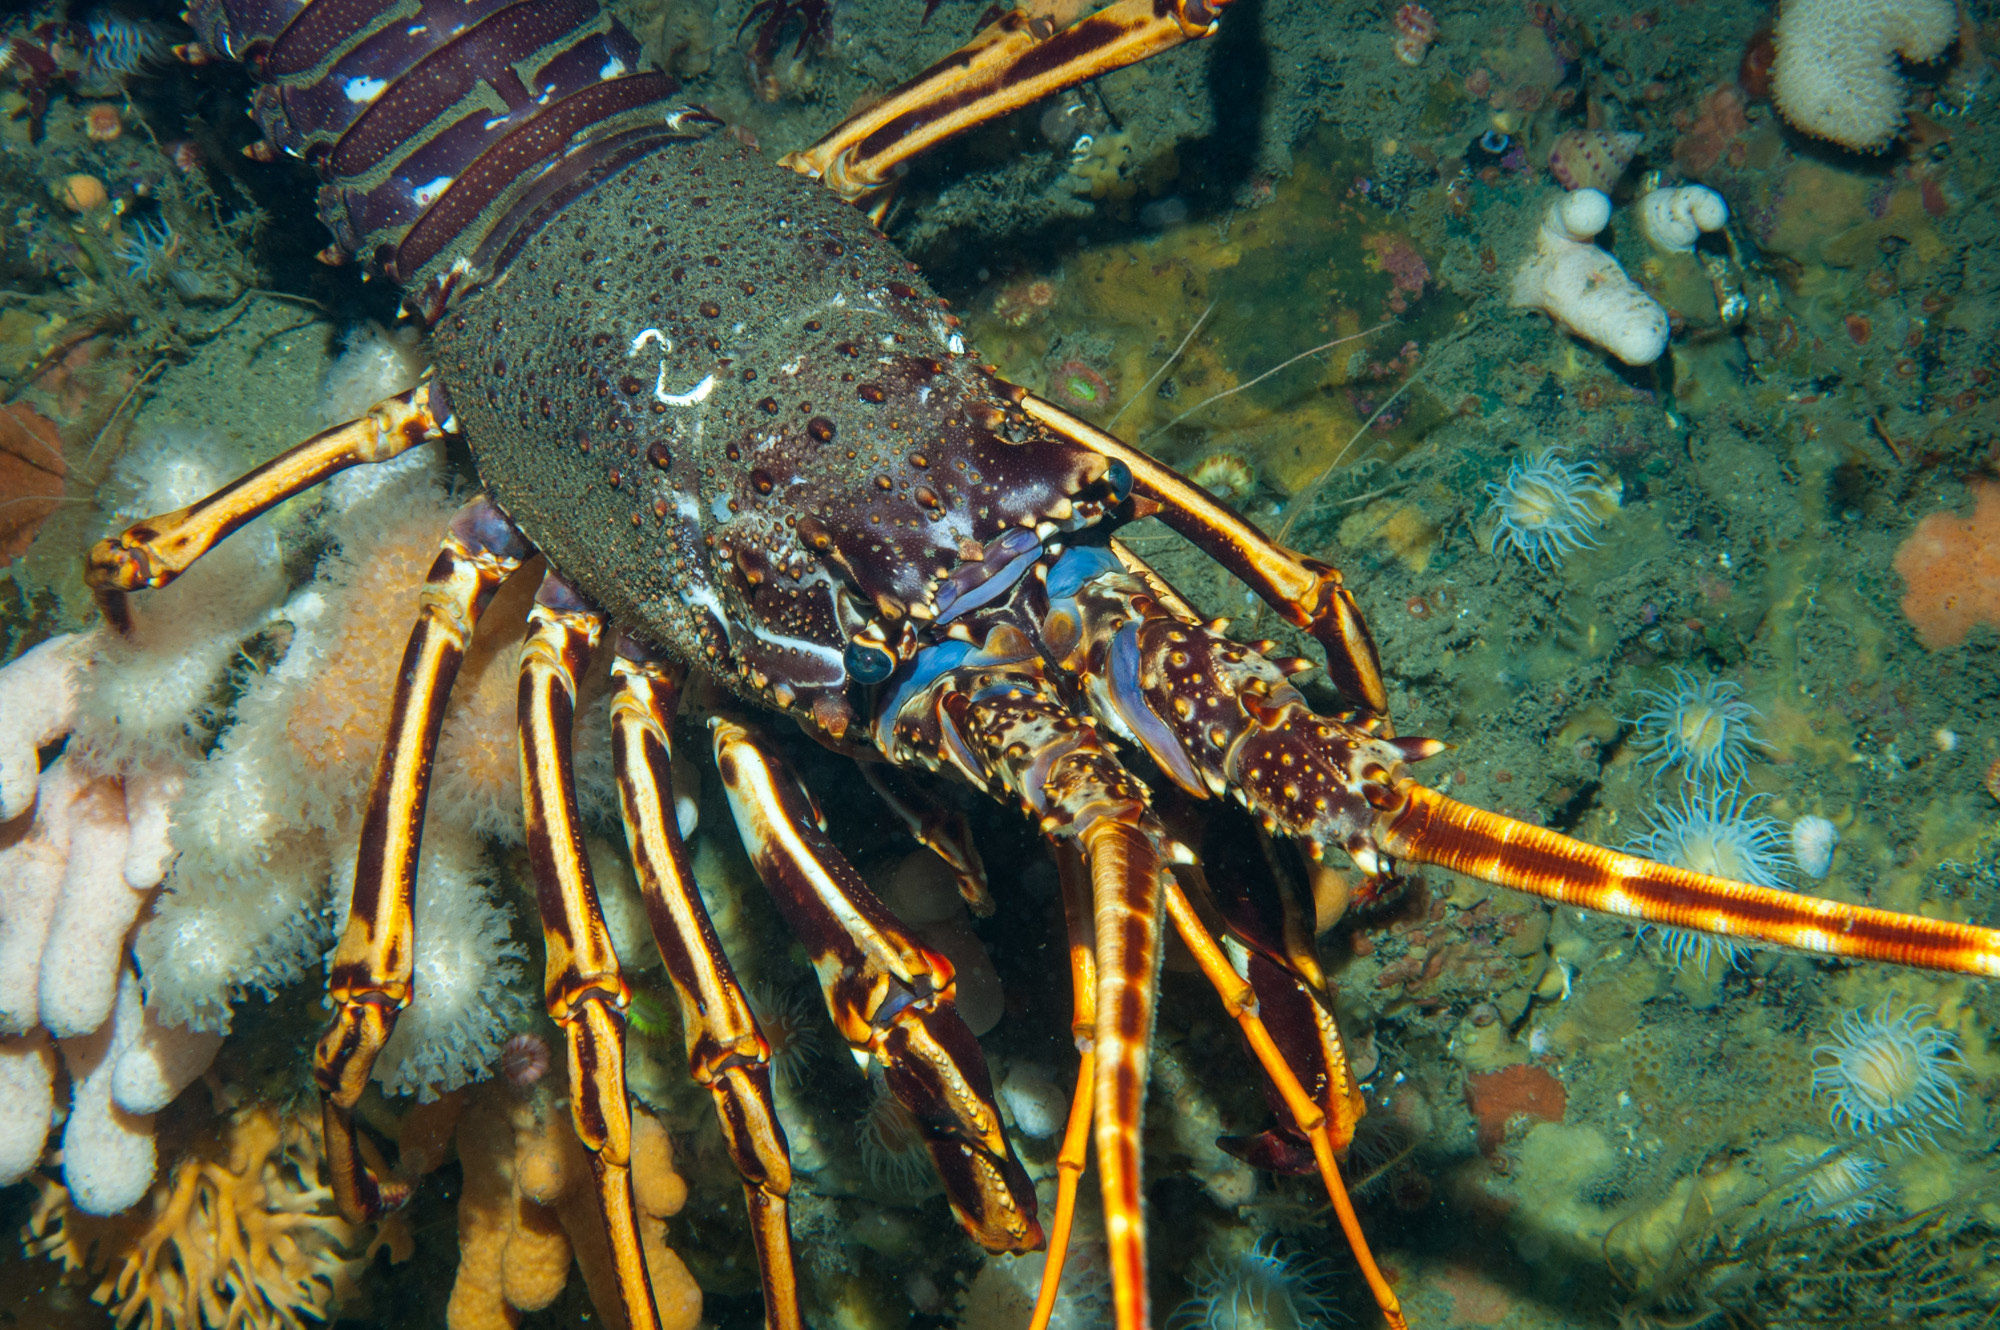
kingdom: Animalia
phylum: Arthropoda
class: Malacostraca
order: Decapoda
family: Palinuridae
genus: Palinurus
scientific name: Palinurus elephas
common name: European spiny lobster
